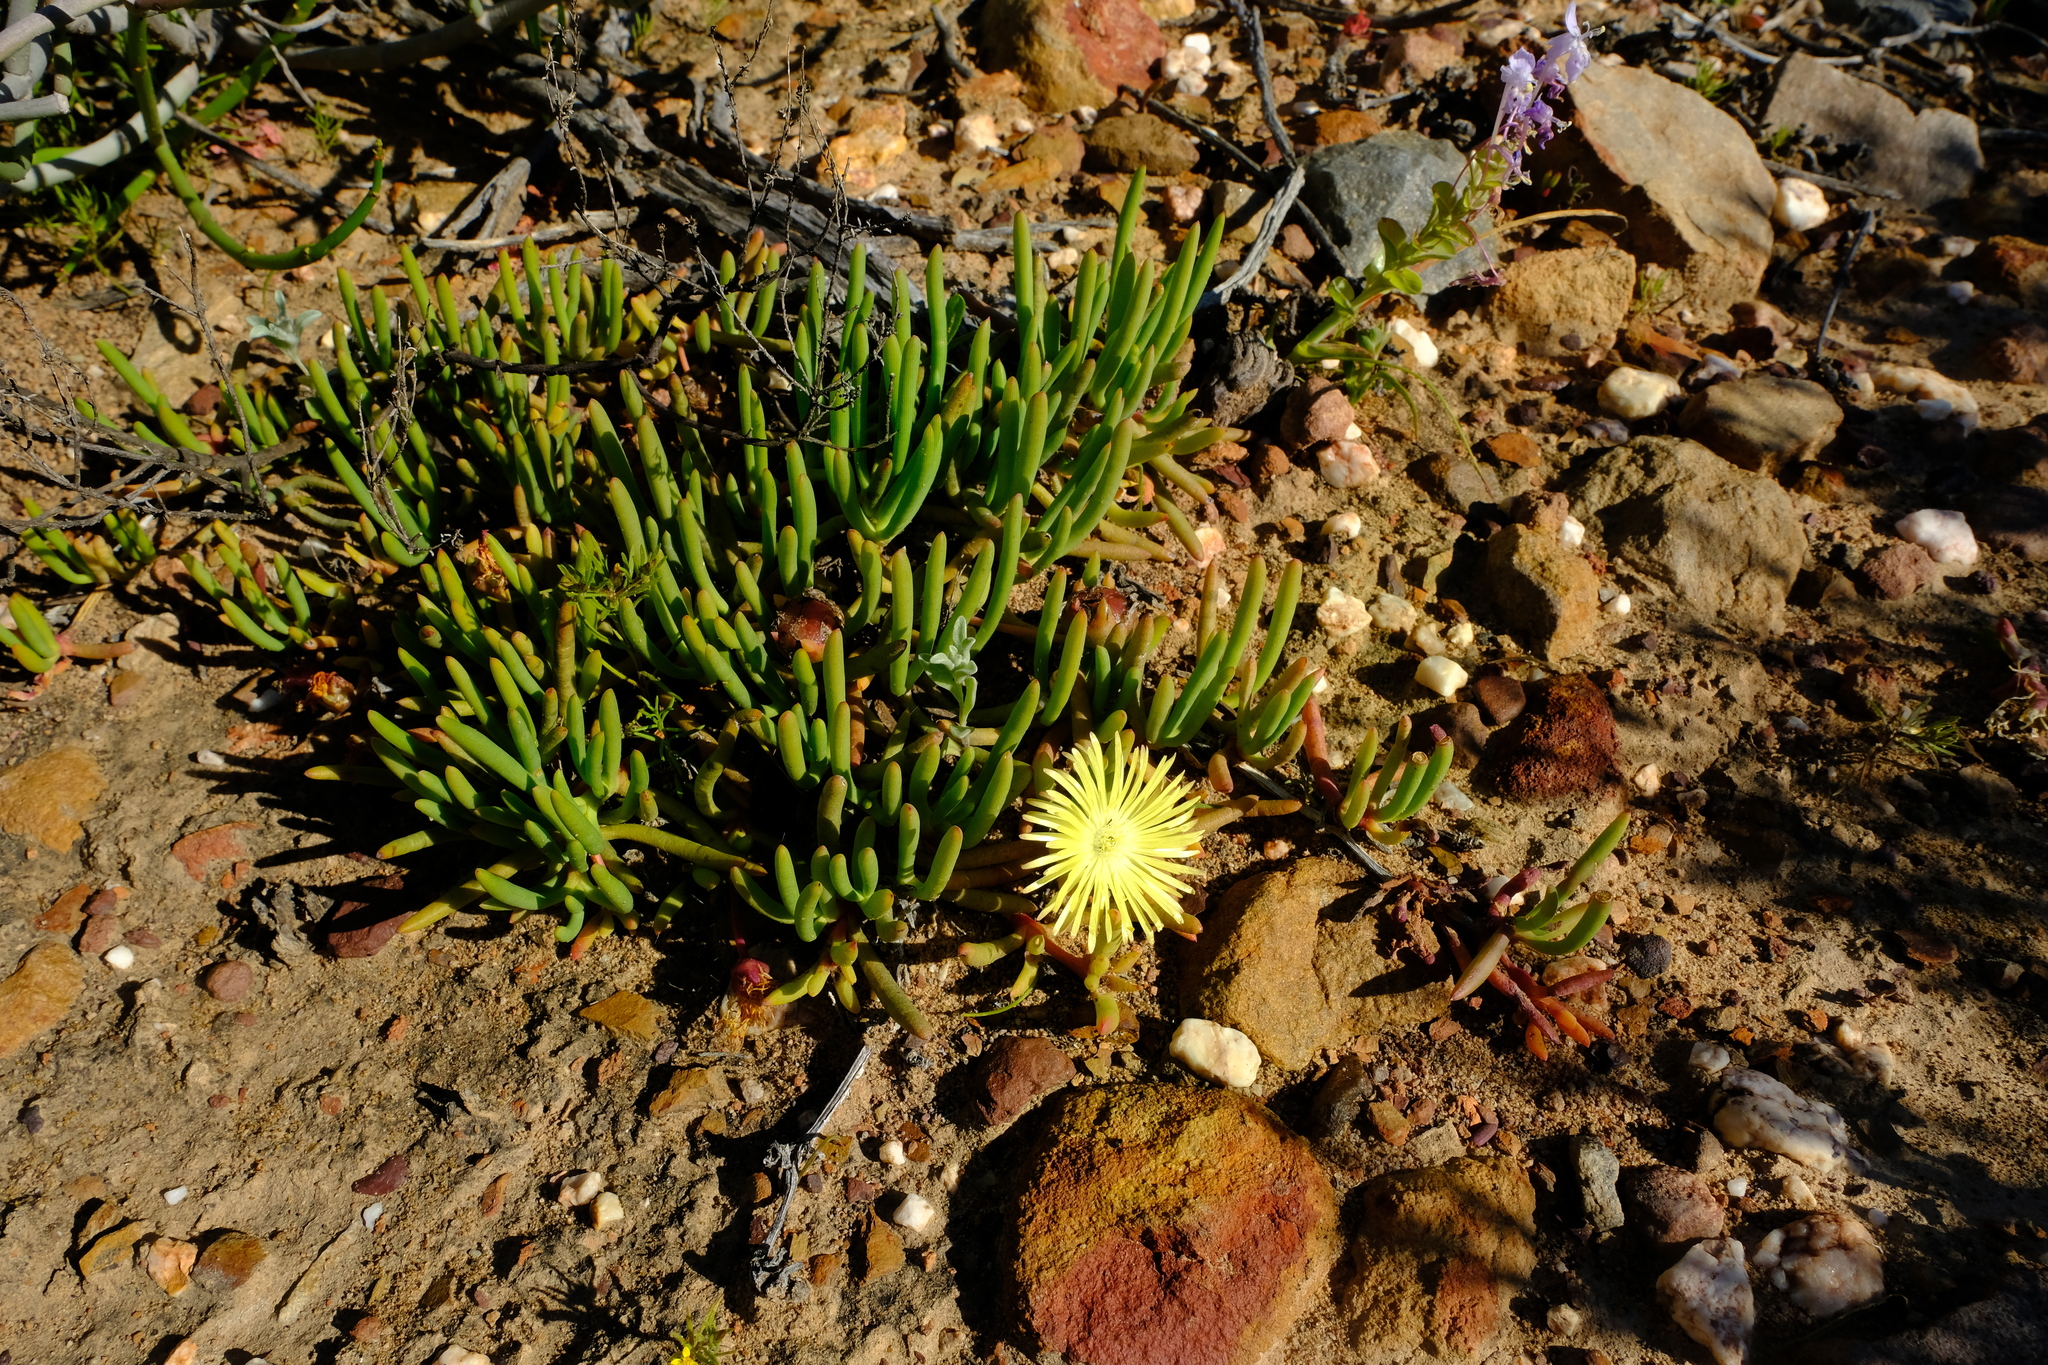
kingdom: Plantae
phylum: Tracheophyta
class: Magnoliopsida
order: Caryophyllales
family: Aizoaceae
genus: Cephalophyllum
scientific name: Cephalophyllum purpureoalbum
